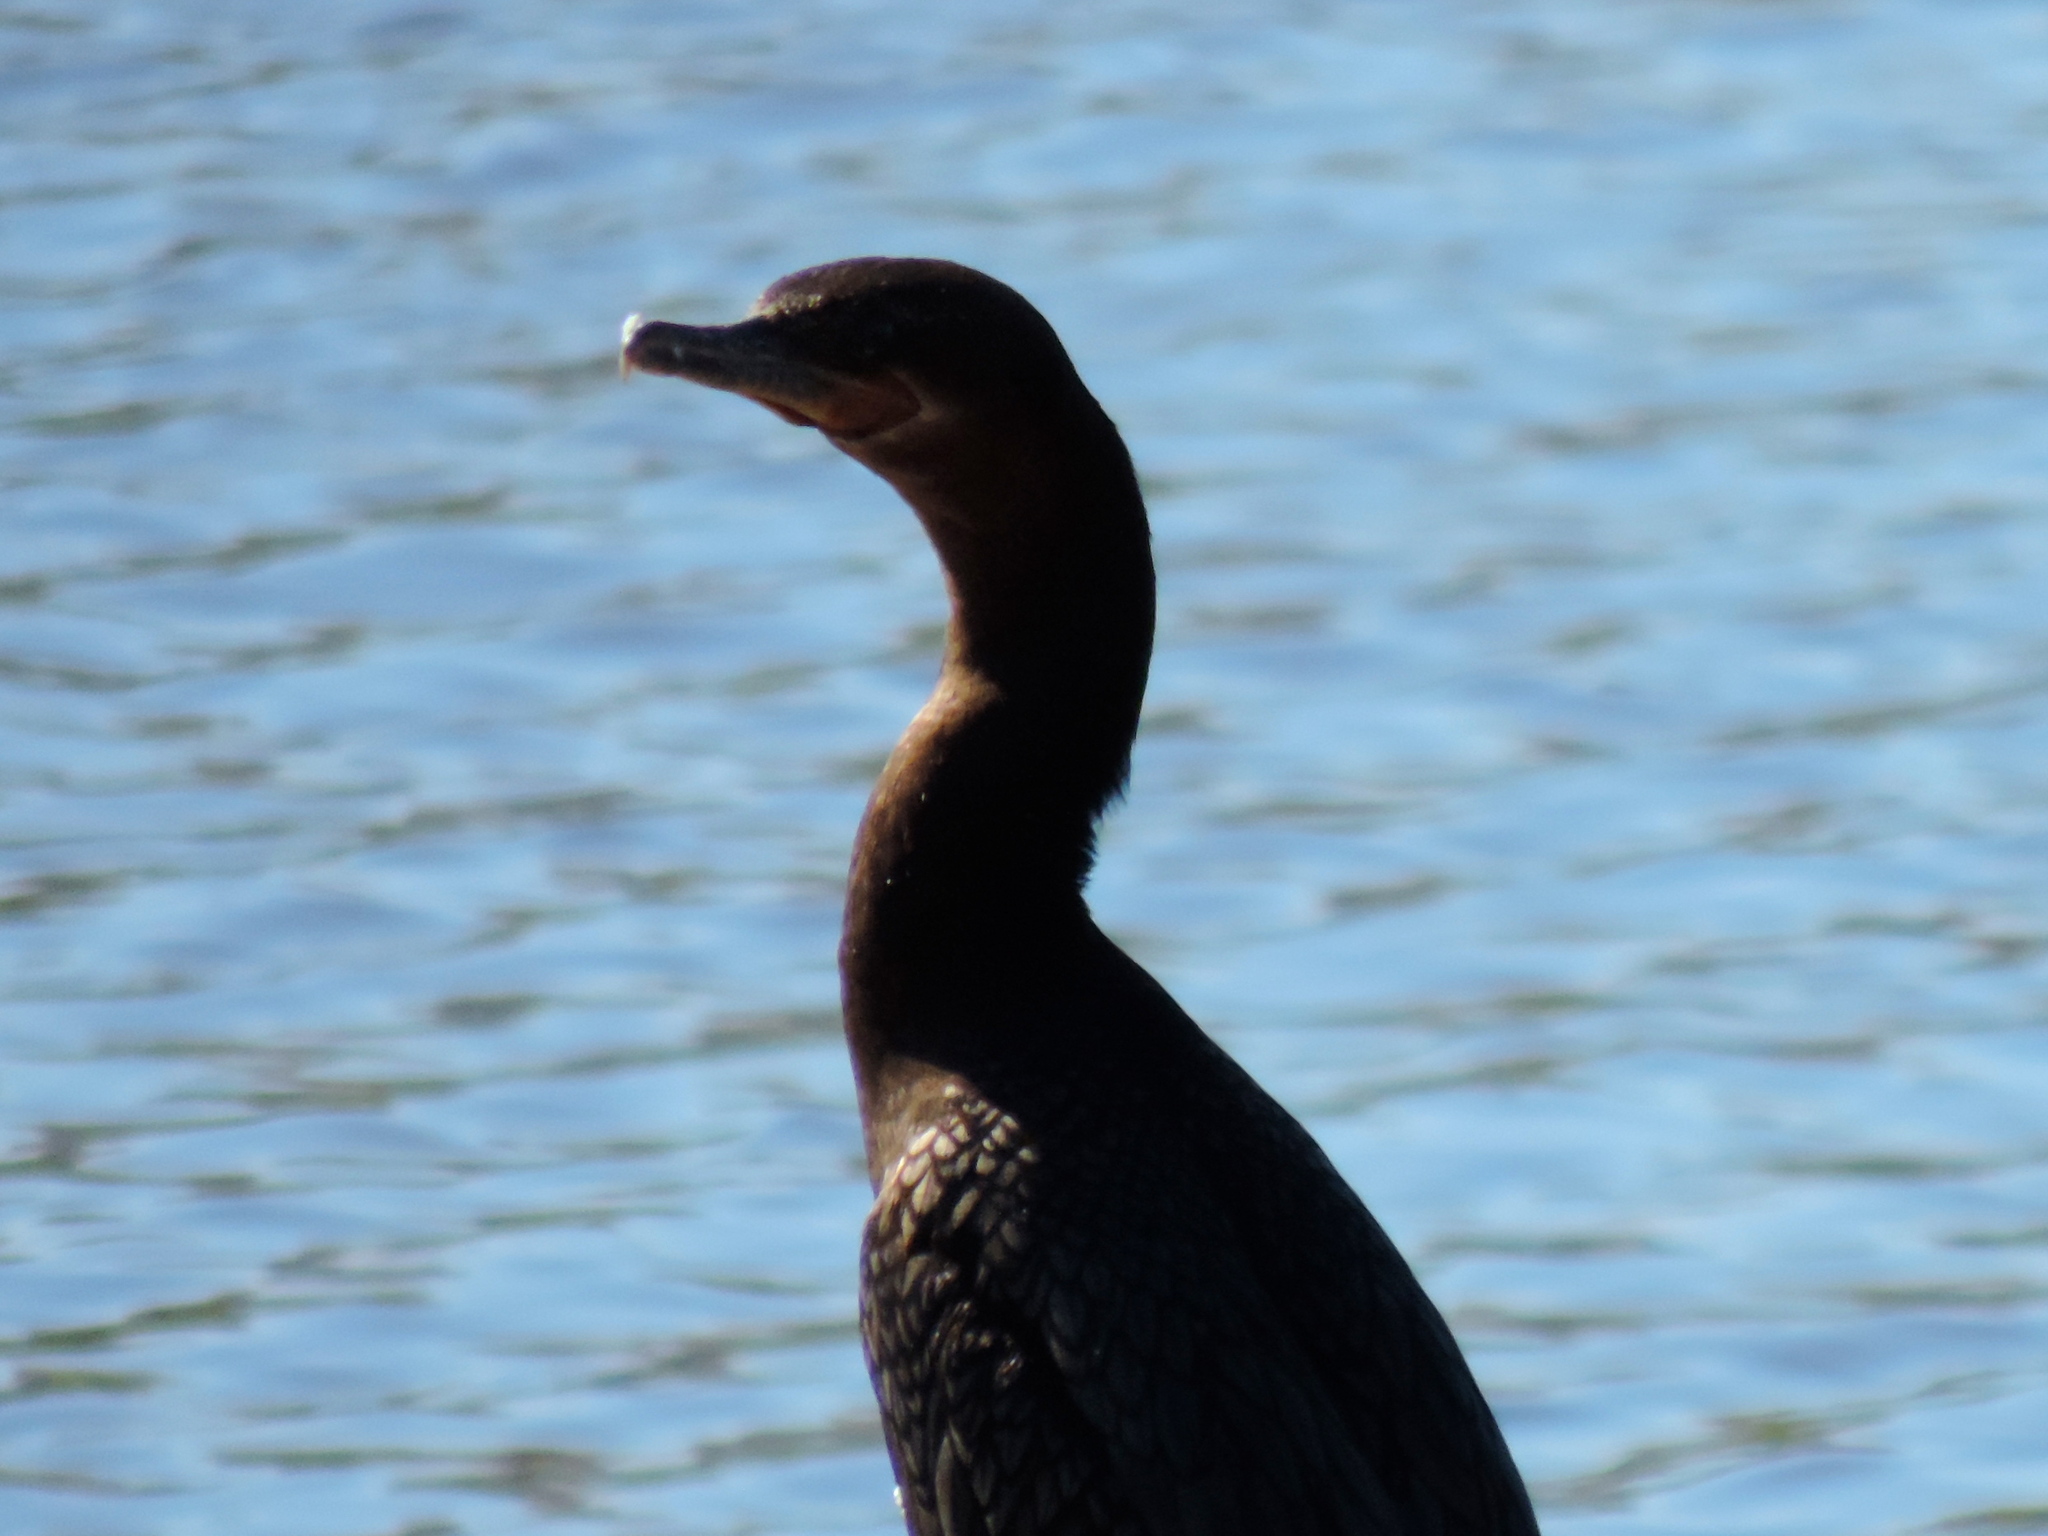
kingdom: Animalia
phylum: Chordata
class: Aves
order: Suliformes
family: Phalacrocoracidae
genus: Phalacrocorax
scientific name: Phalacrocorax brasilianus
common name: Neotropic cormorant
